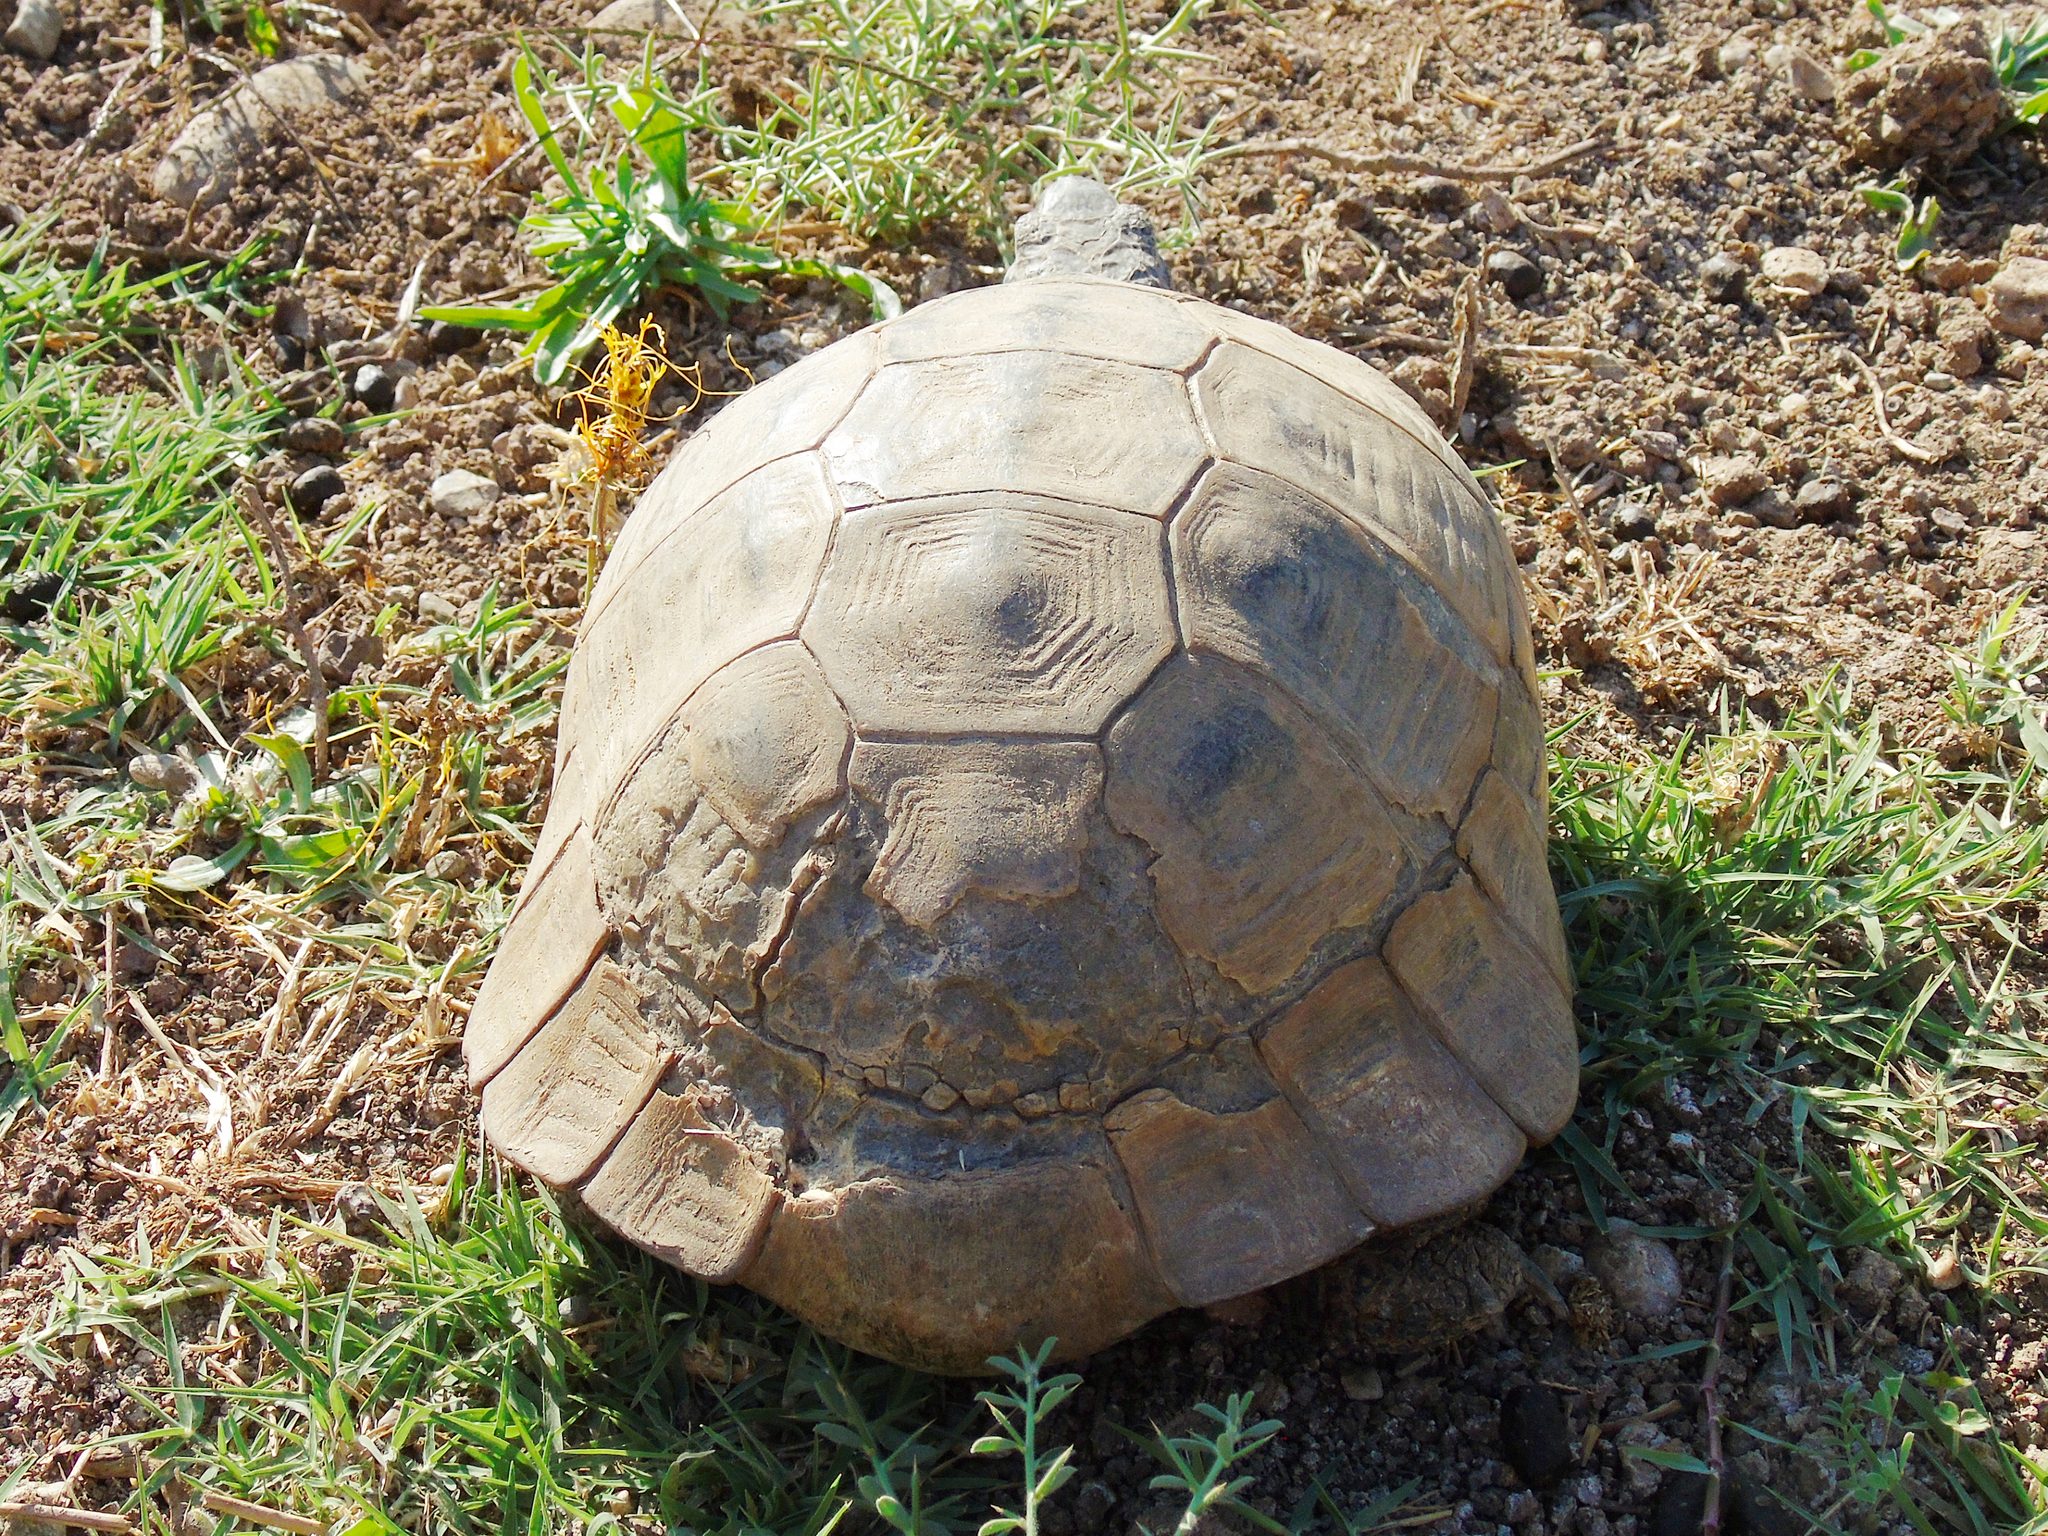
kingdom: Animalia
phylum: Chordata
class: Testudines
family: Testudinidae
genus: Testudo
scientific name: Testudo graeca
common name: Common tortoise
